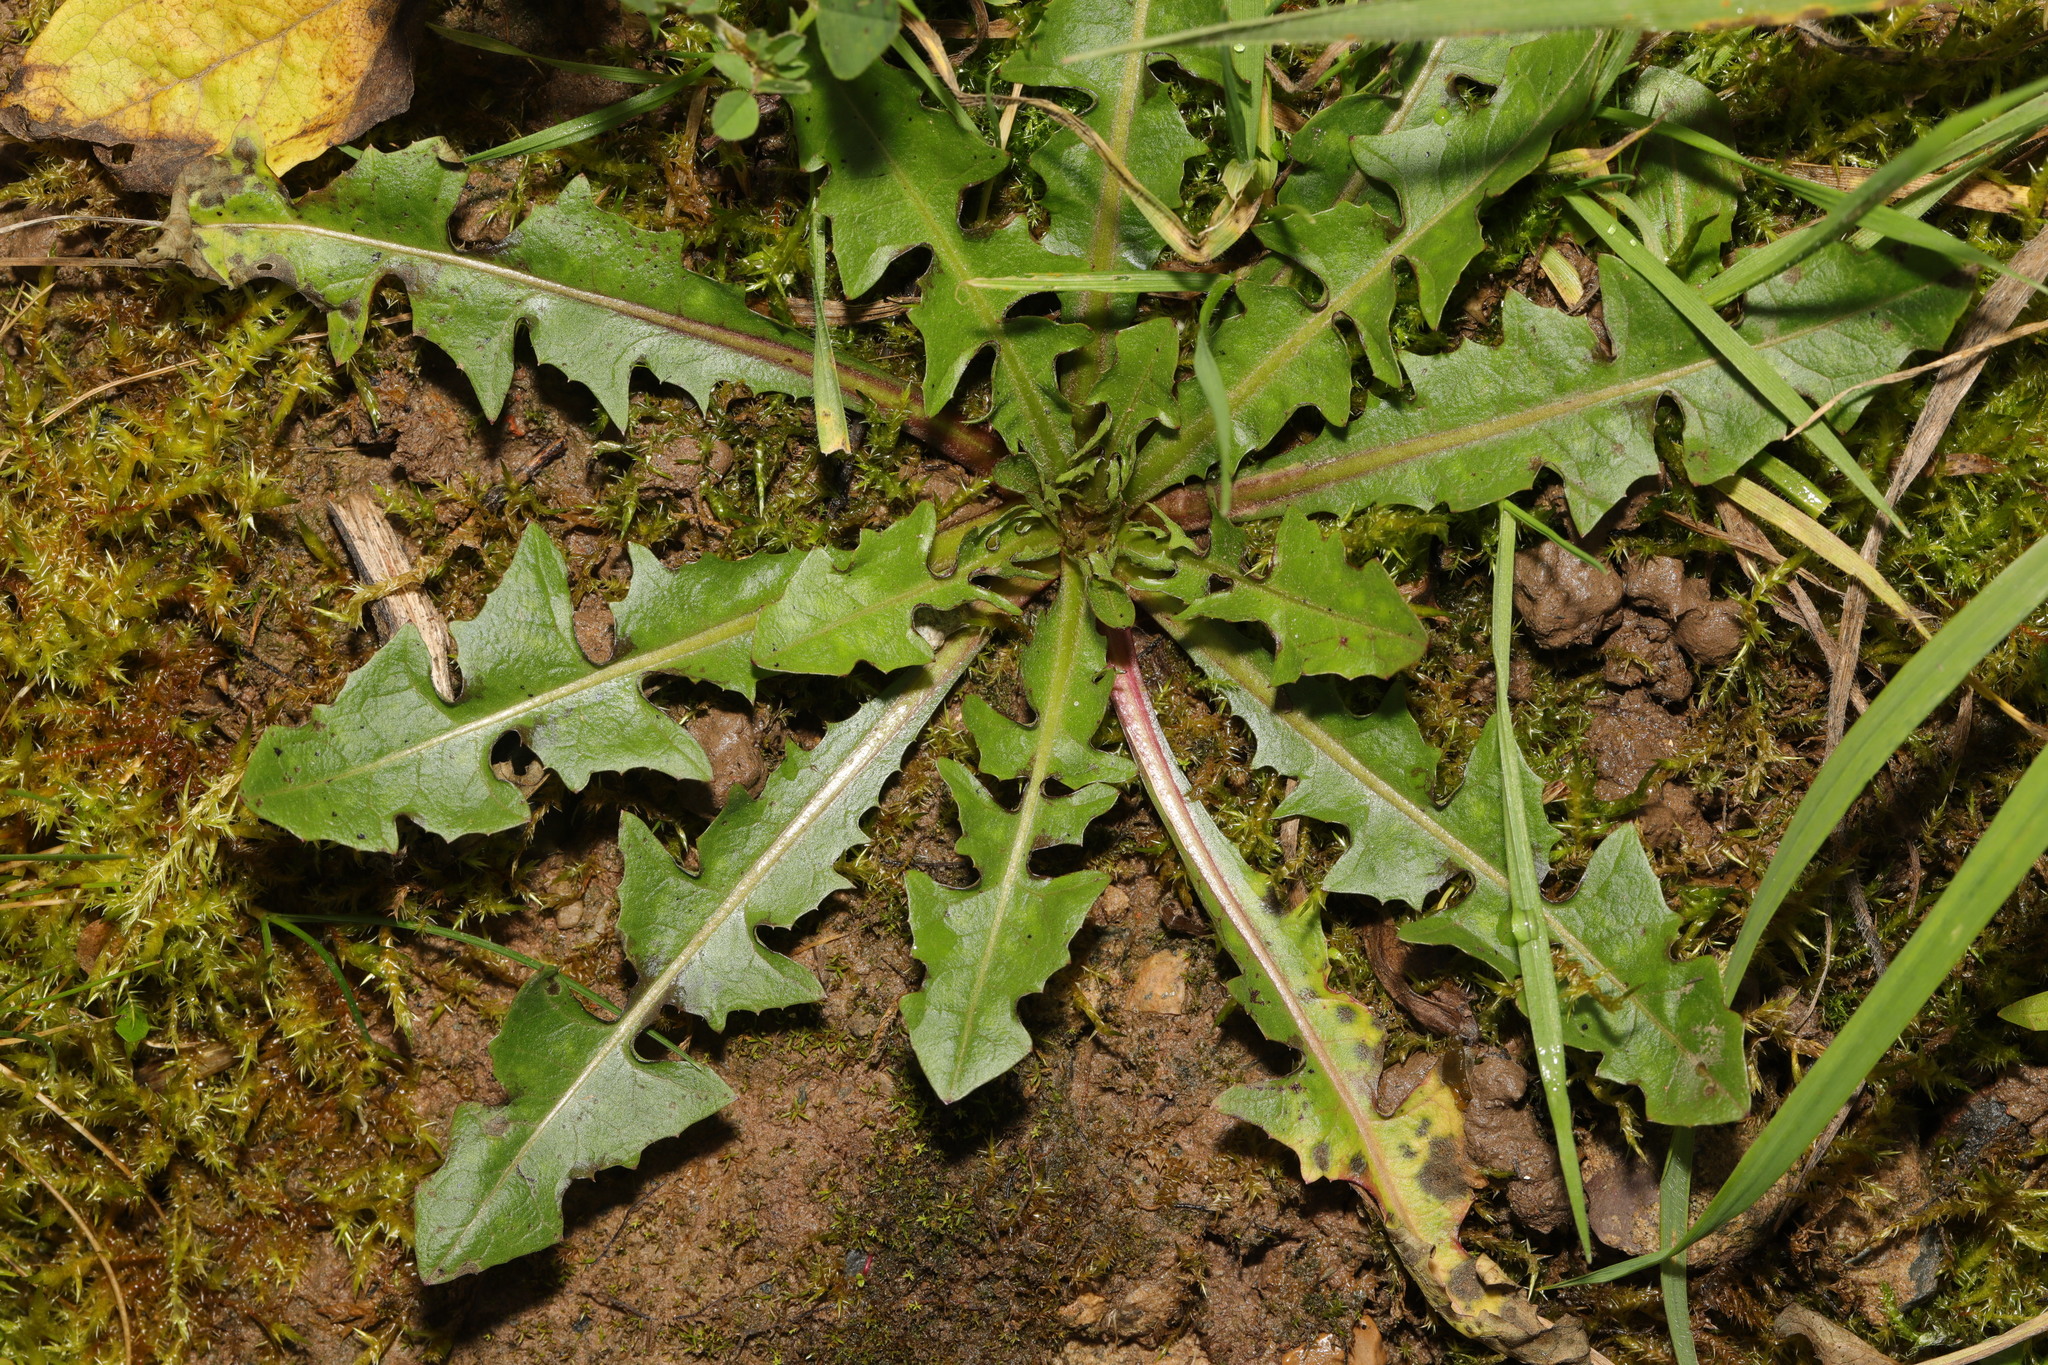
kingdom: Plantae
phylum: Tracheophyta
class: Magnoliopsida
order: Asterales
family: Asteraceae
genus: Taraxacum
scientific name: Taraxacum officinale
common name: Common dandelion
